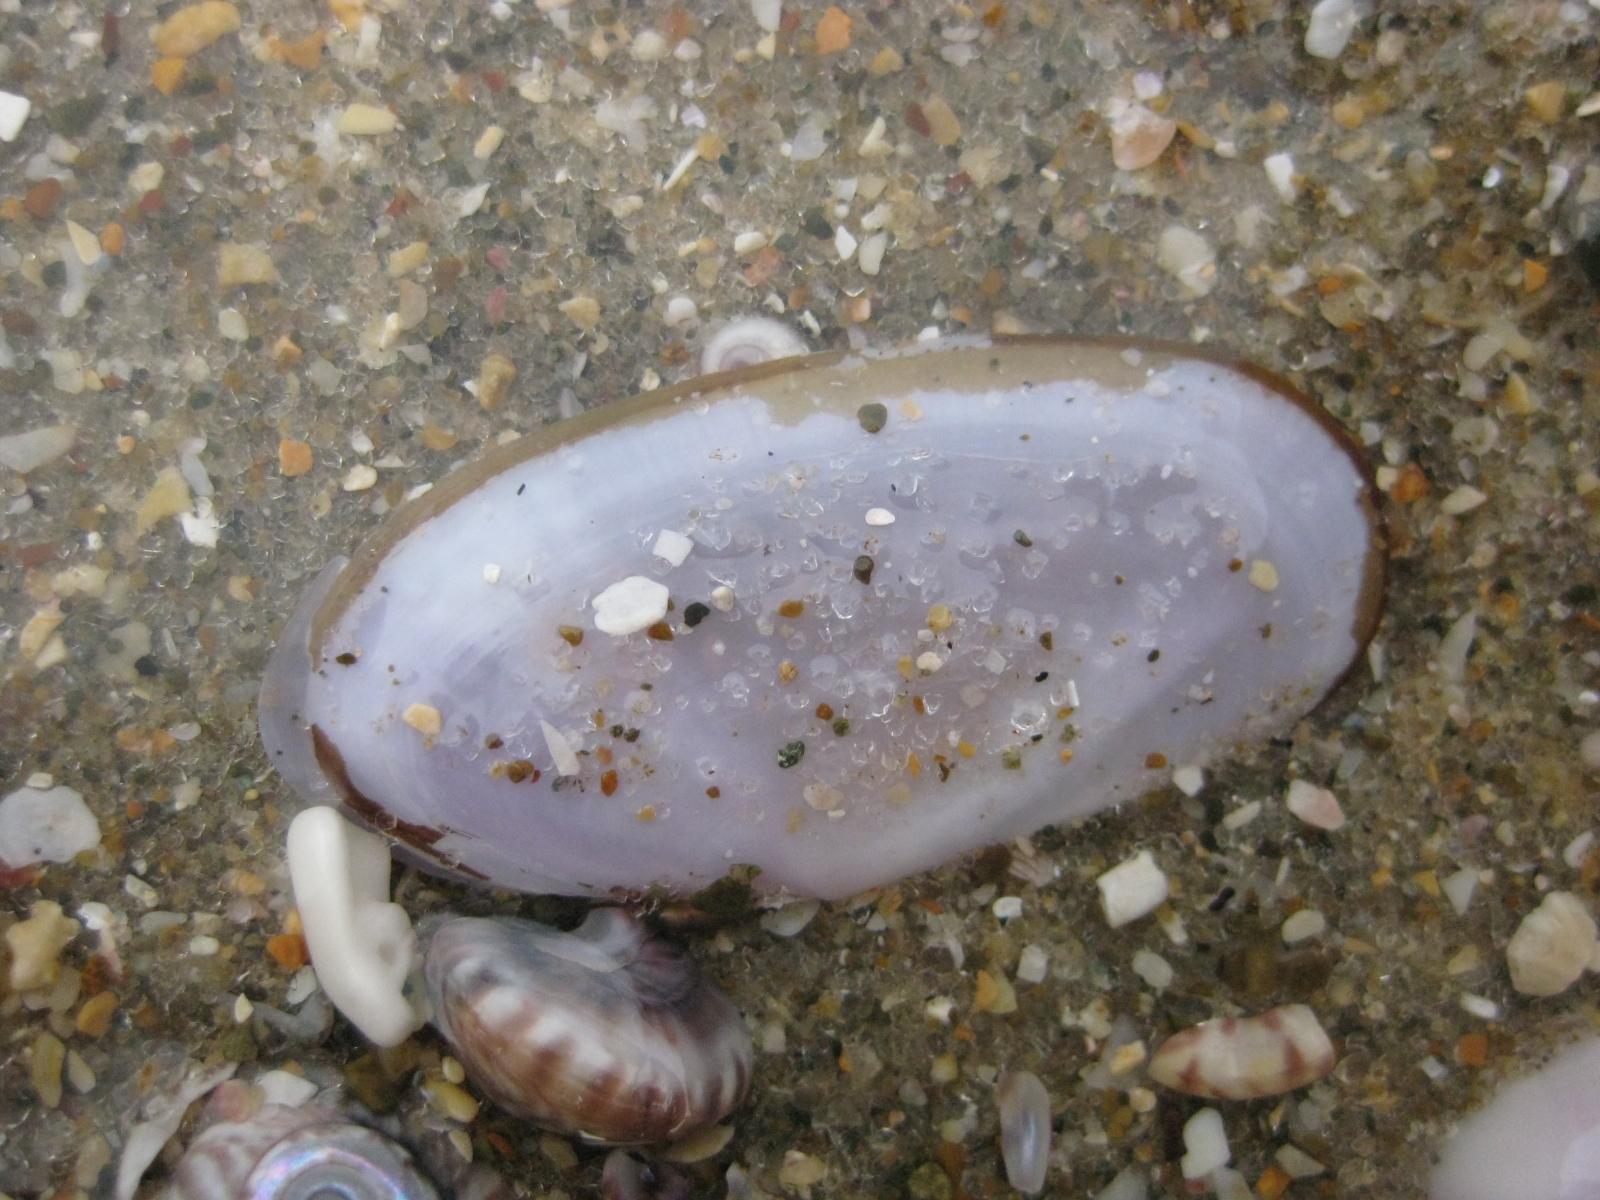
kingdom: Animalia
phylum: Mollusca
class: Bivalvia
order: Cardiida
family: Psammobiidae
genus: Hiatula
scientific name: Hiatula nitida
